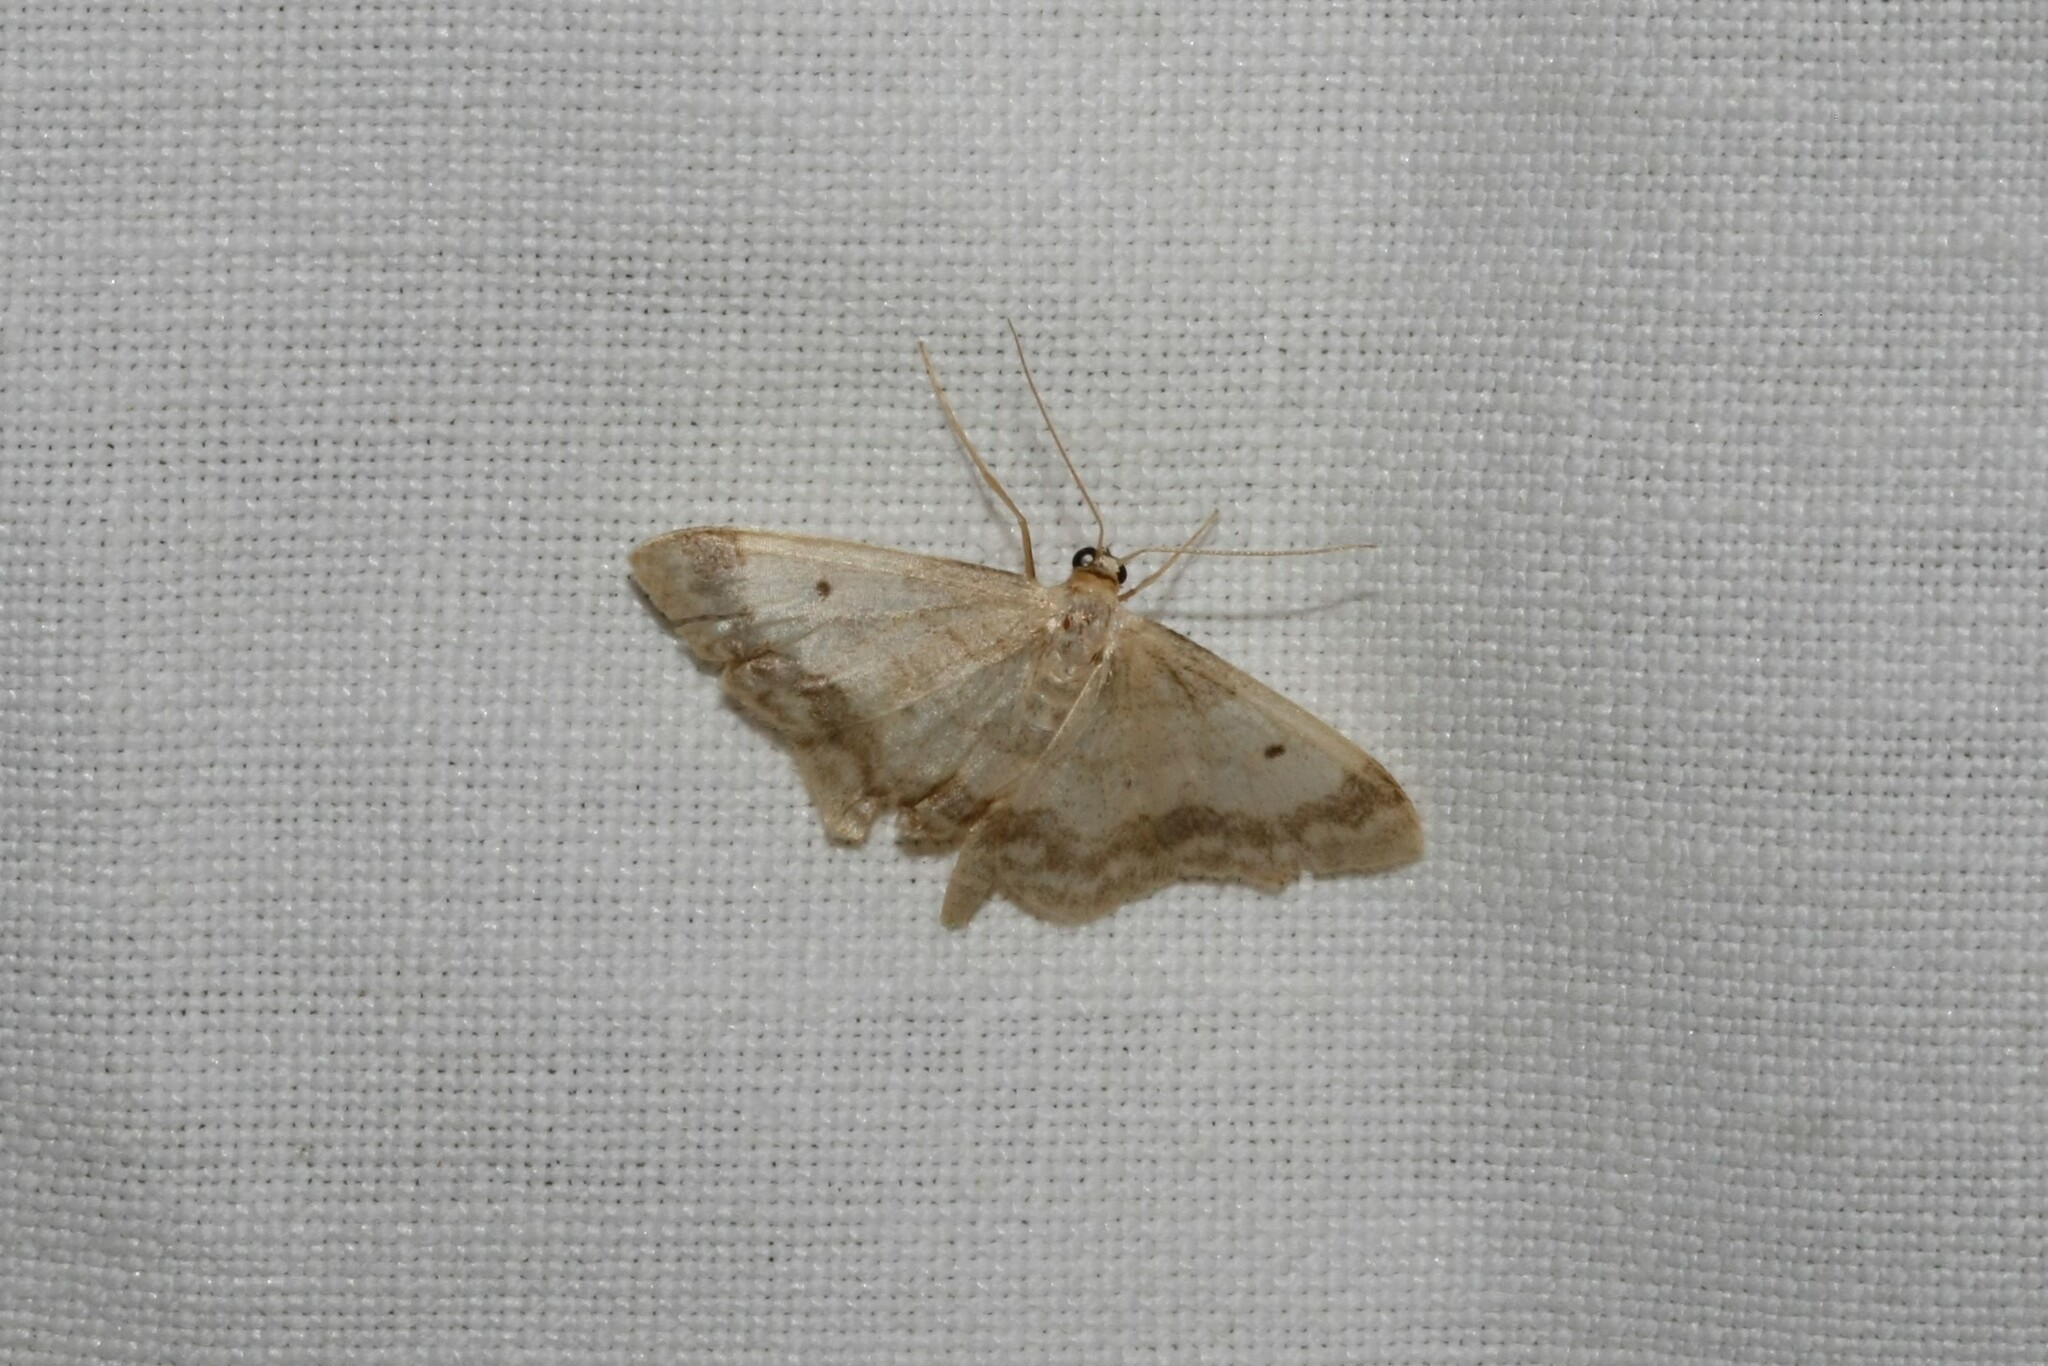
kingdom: Animalia
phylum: Arthropoda
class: Insecta
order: Lepidoptera
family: Geometridae
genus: Idaea
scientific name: Idaea biselata
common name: Small fan-footed wave
